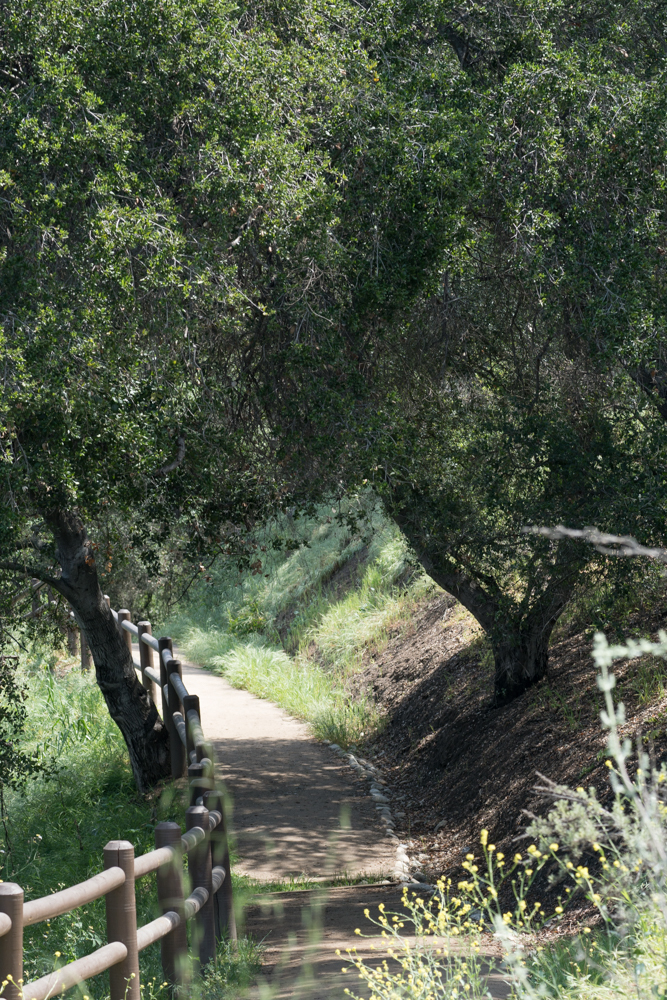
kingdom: Plantae
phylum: Tracheophyta
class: Magnoliopsida
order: Fagales
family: Fagaceae
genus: Quercus
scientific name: Quercus agrifolia
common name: California live oak
